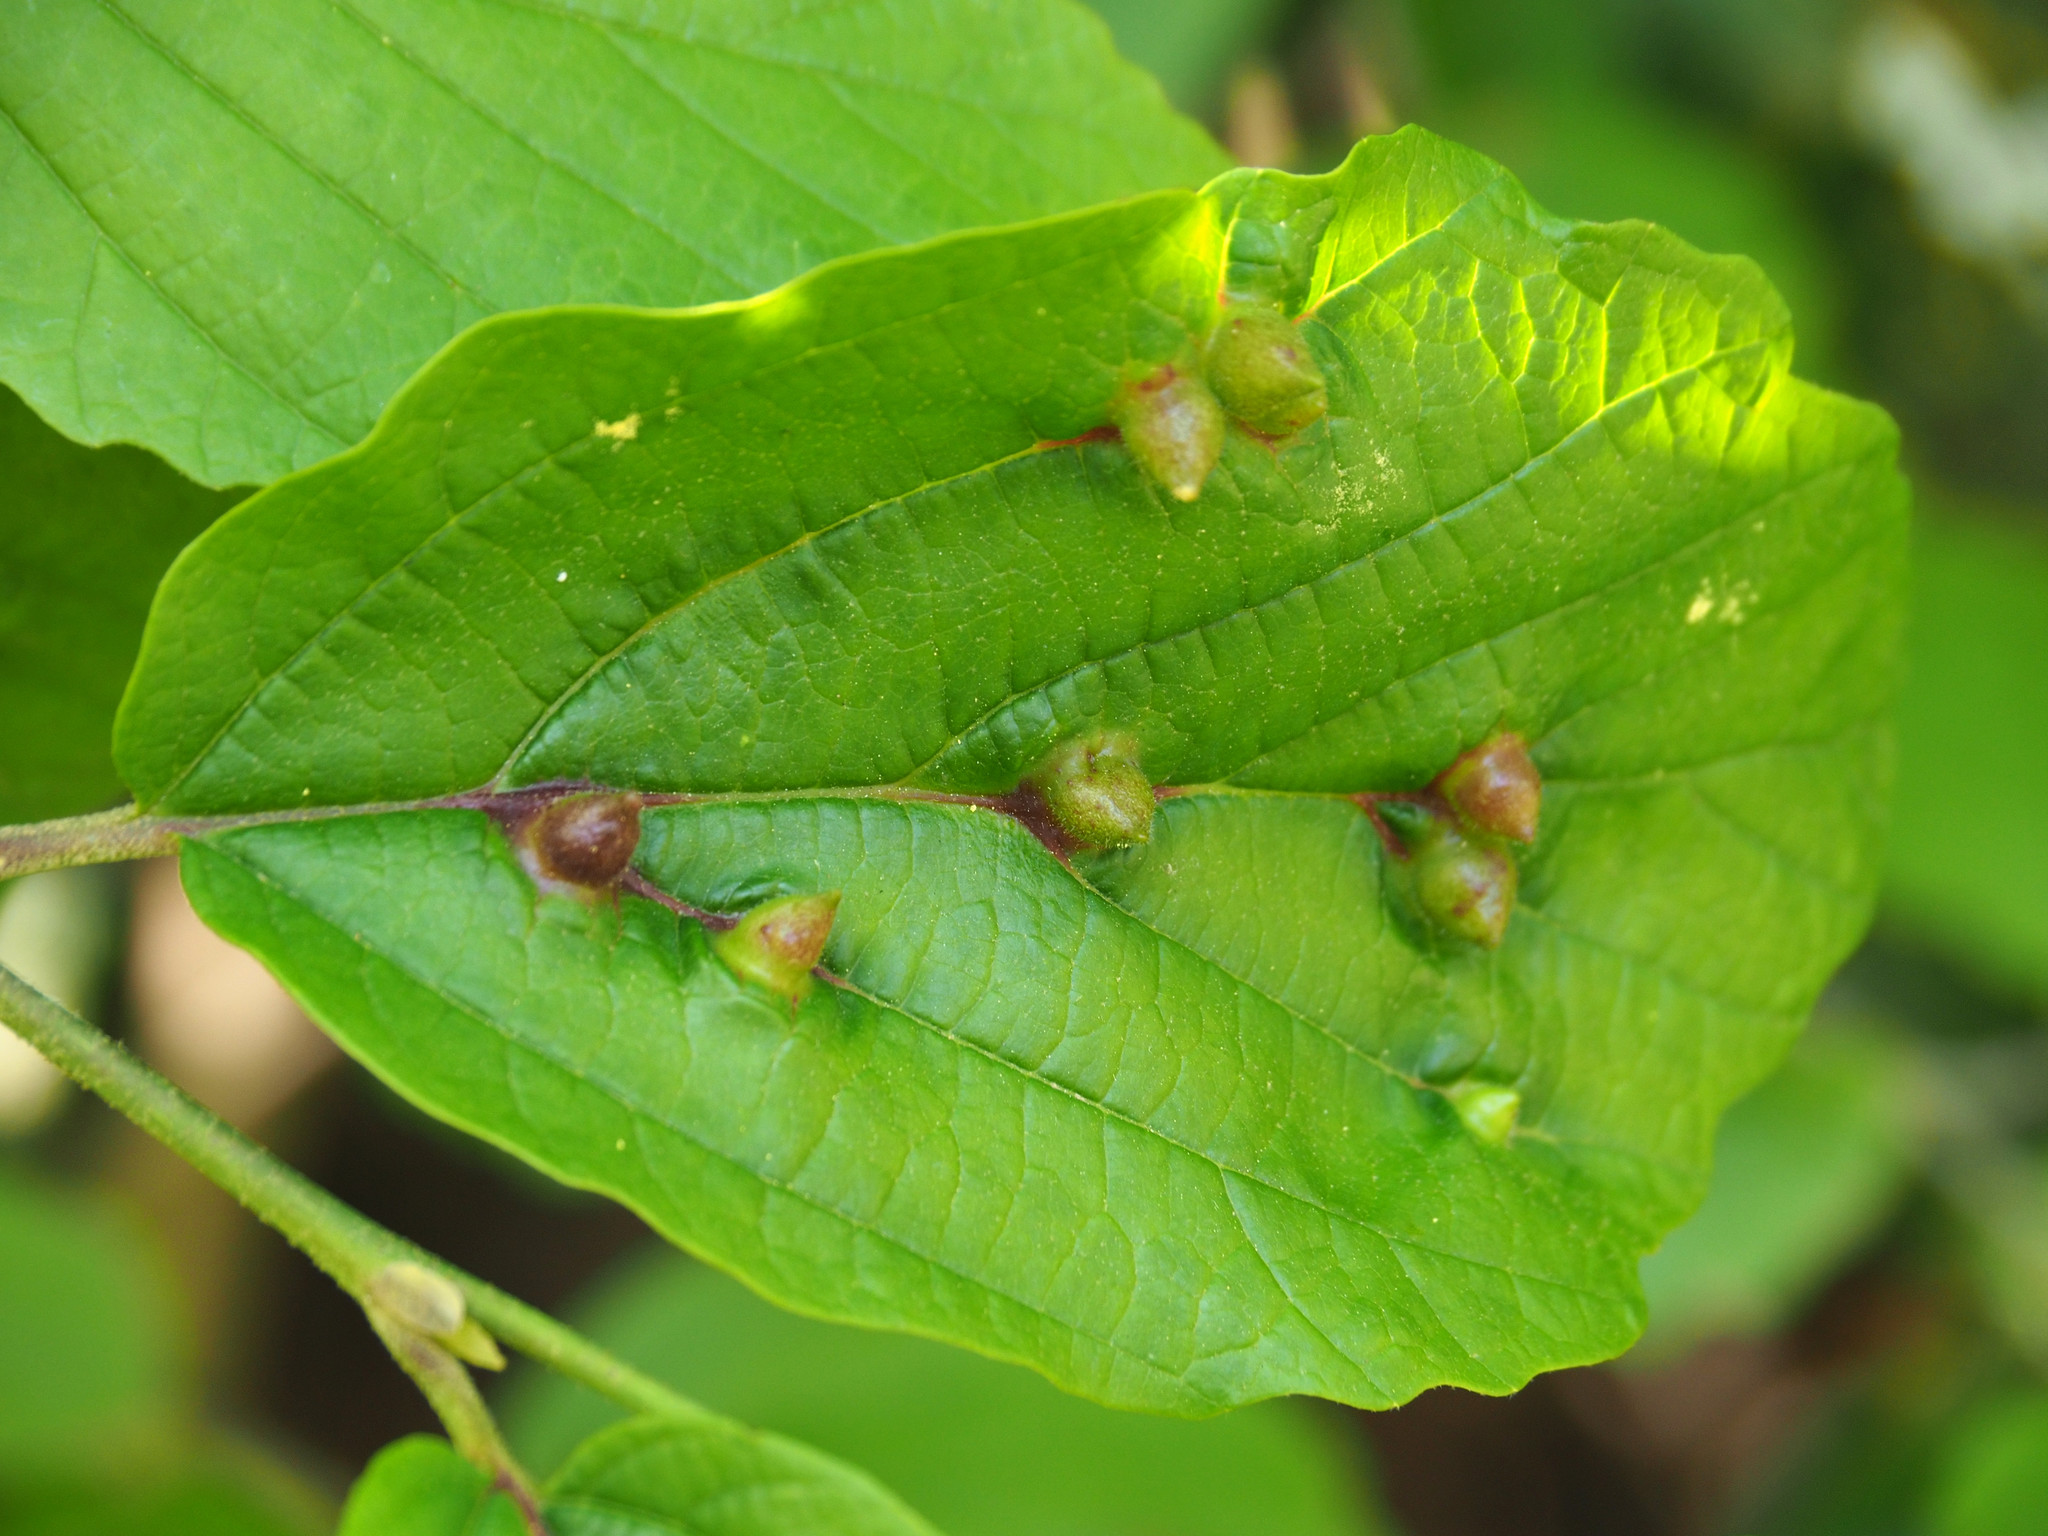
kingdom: Animalia
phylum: Arthropoda
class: Insecta
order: Hemiptera
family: Aphididae
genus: Hormaphis
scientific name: Hormaphis hamamelidis
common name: Witch-hazel cone gall aphid
